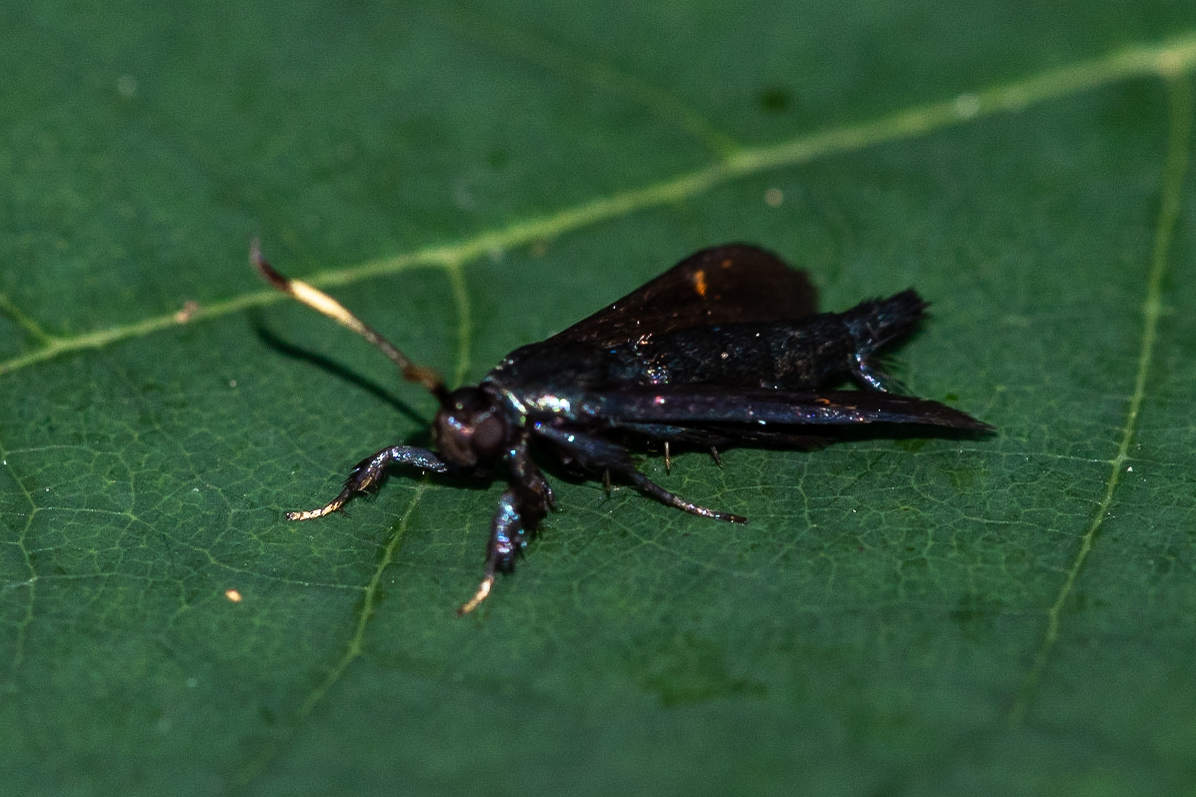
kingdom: Animalia
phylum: Arthropoda
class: Insecta
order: Lepidoptera
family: Sesiidae
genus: Albuna
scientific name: Albuna fraxini
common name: Virginia creeper clearwing
